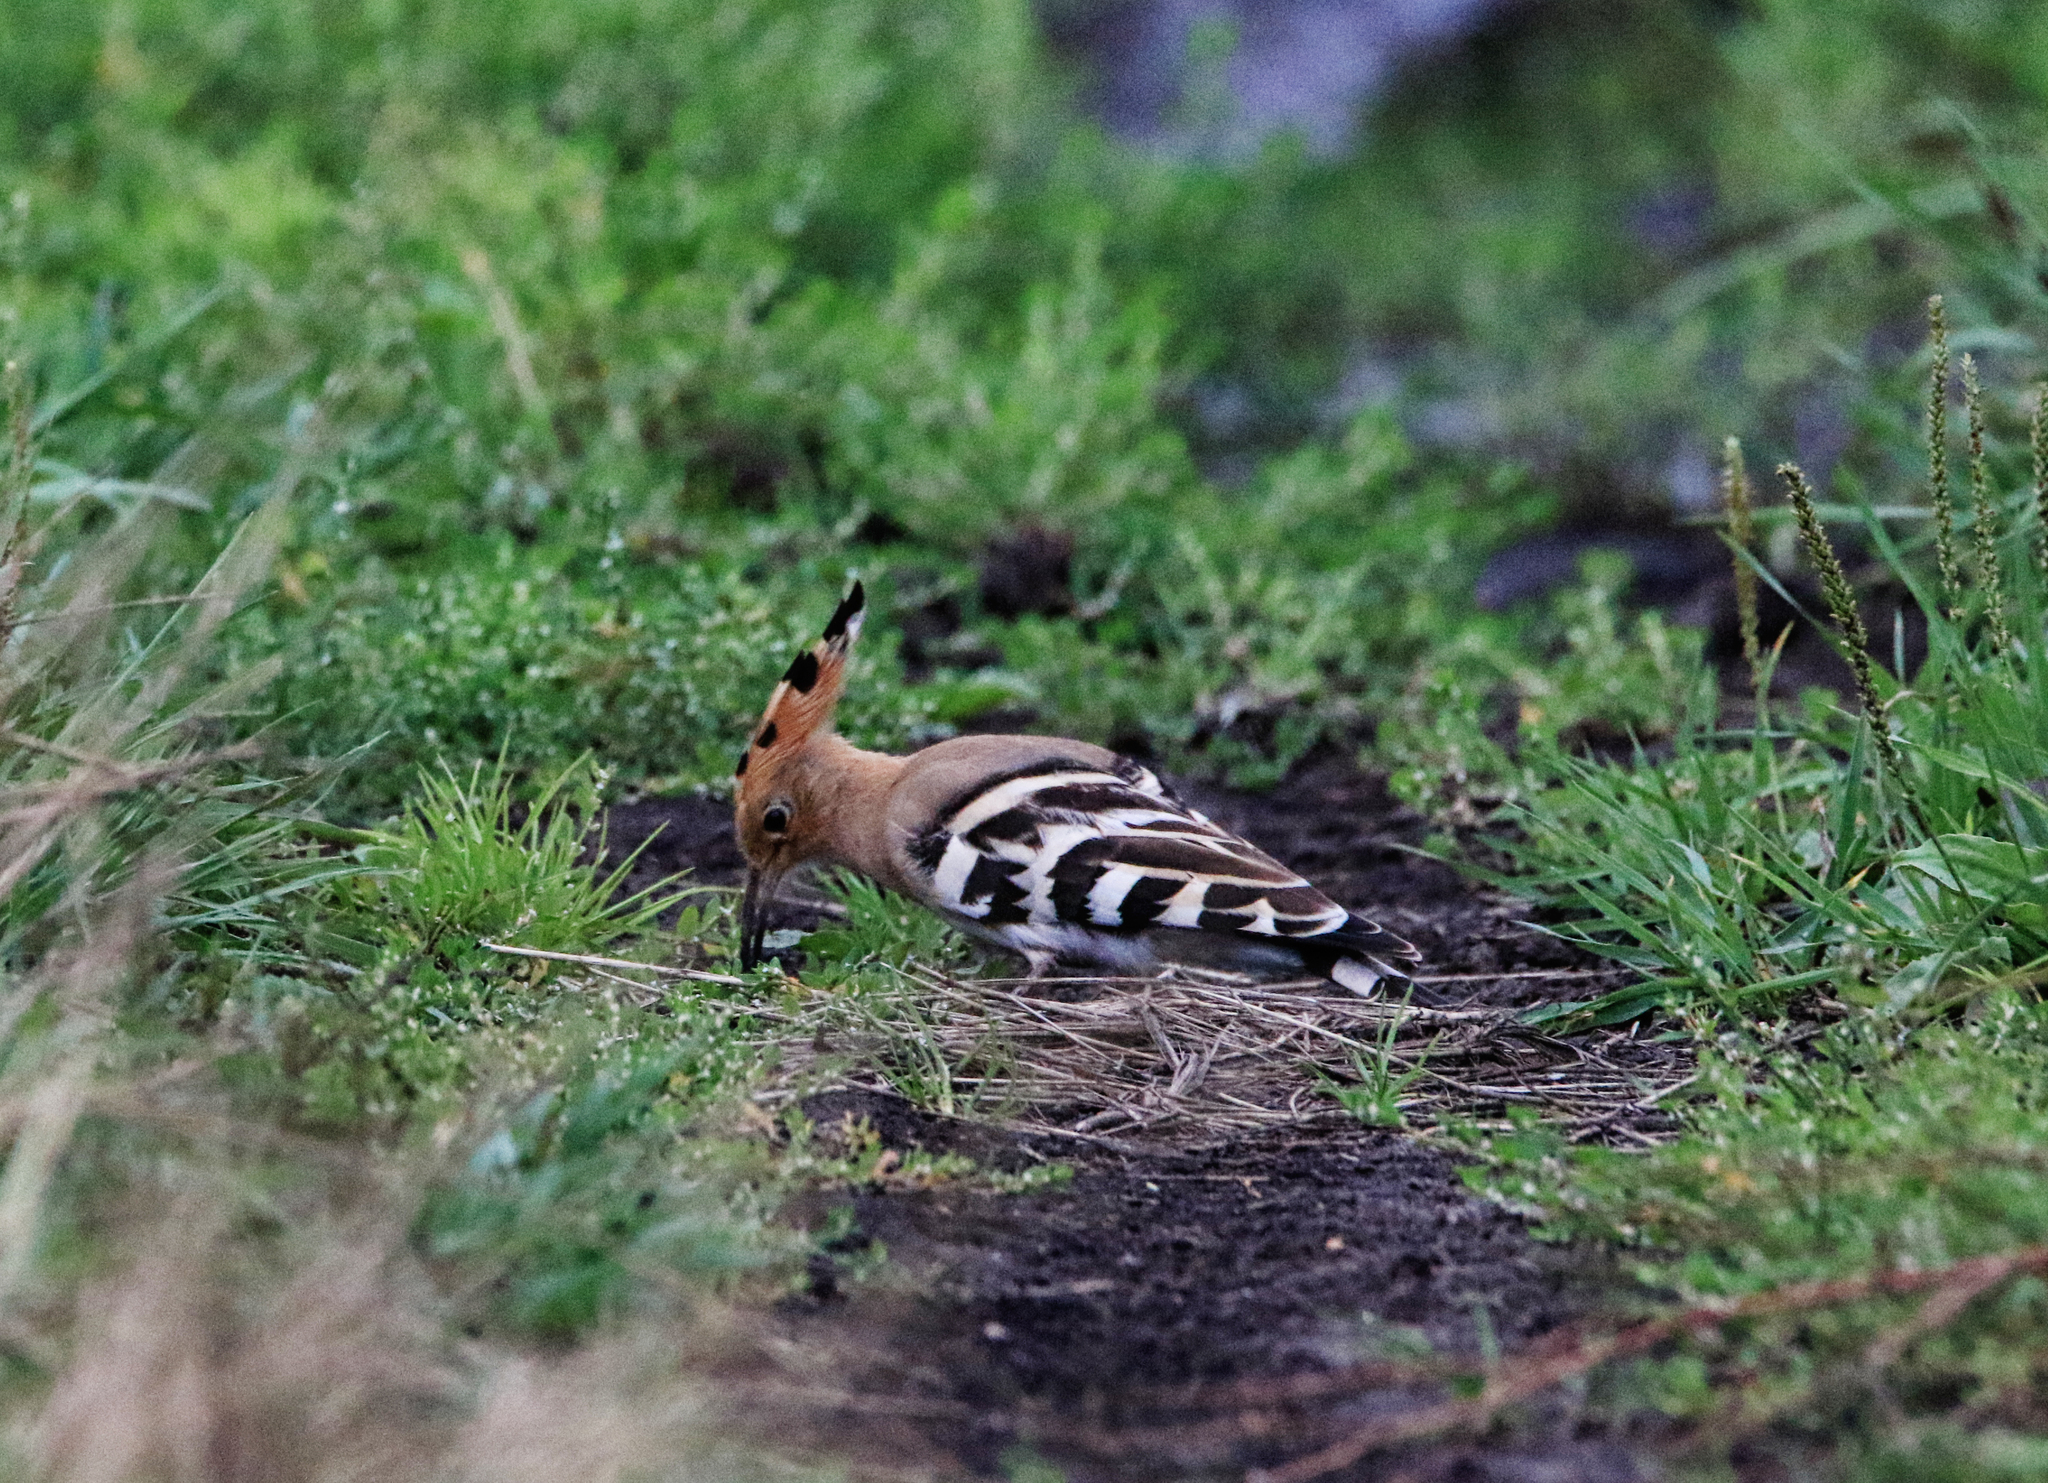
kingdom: Animalia
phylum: Chordata
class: Aves
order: Bucerotiformes
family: Upupidae
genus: Upupa
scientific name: Upupa epops
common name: Eurasian hoopoe
